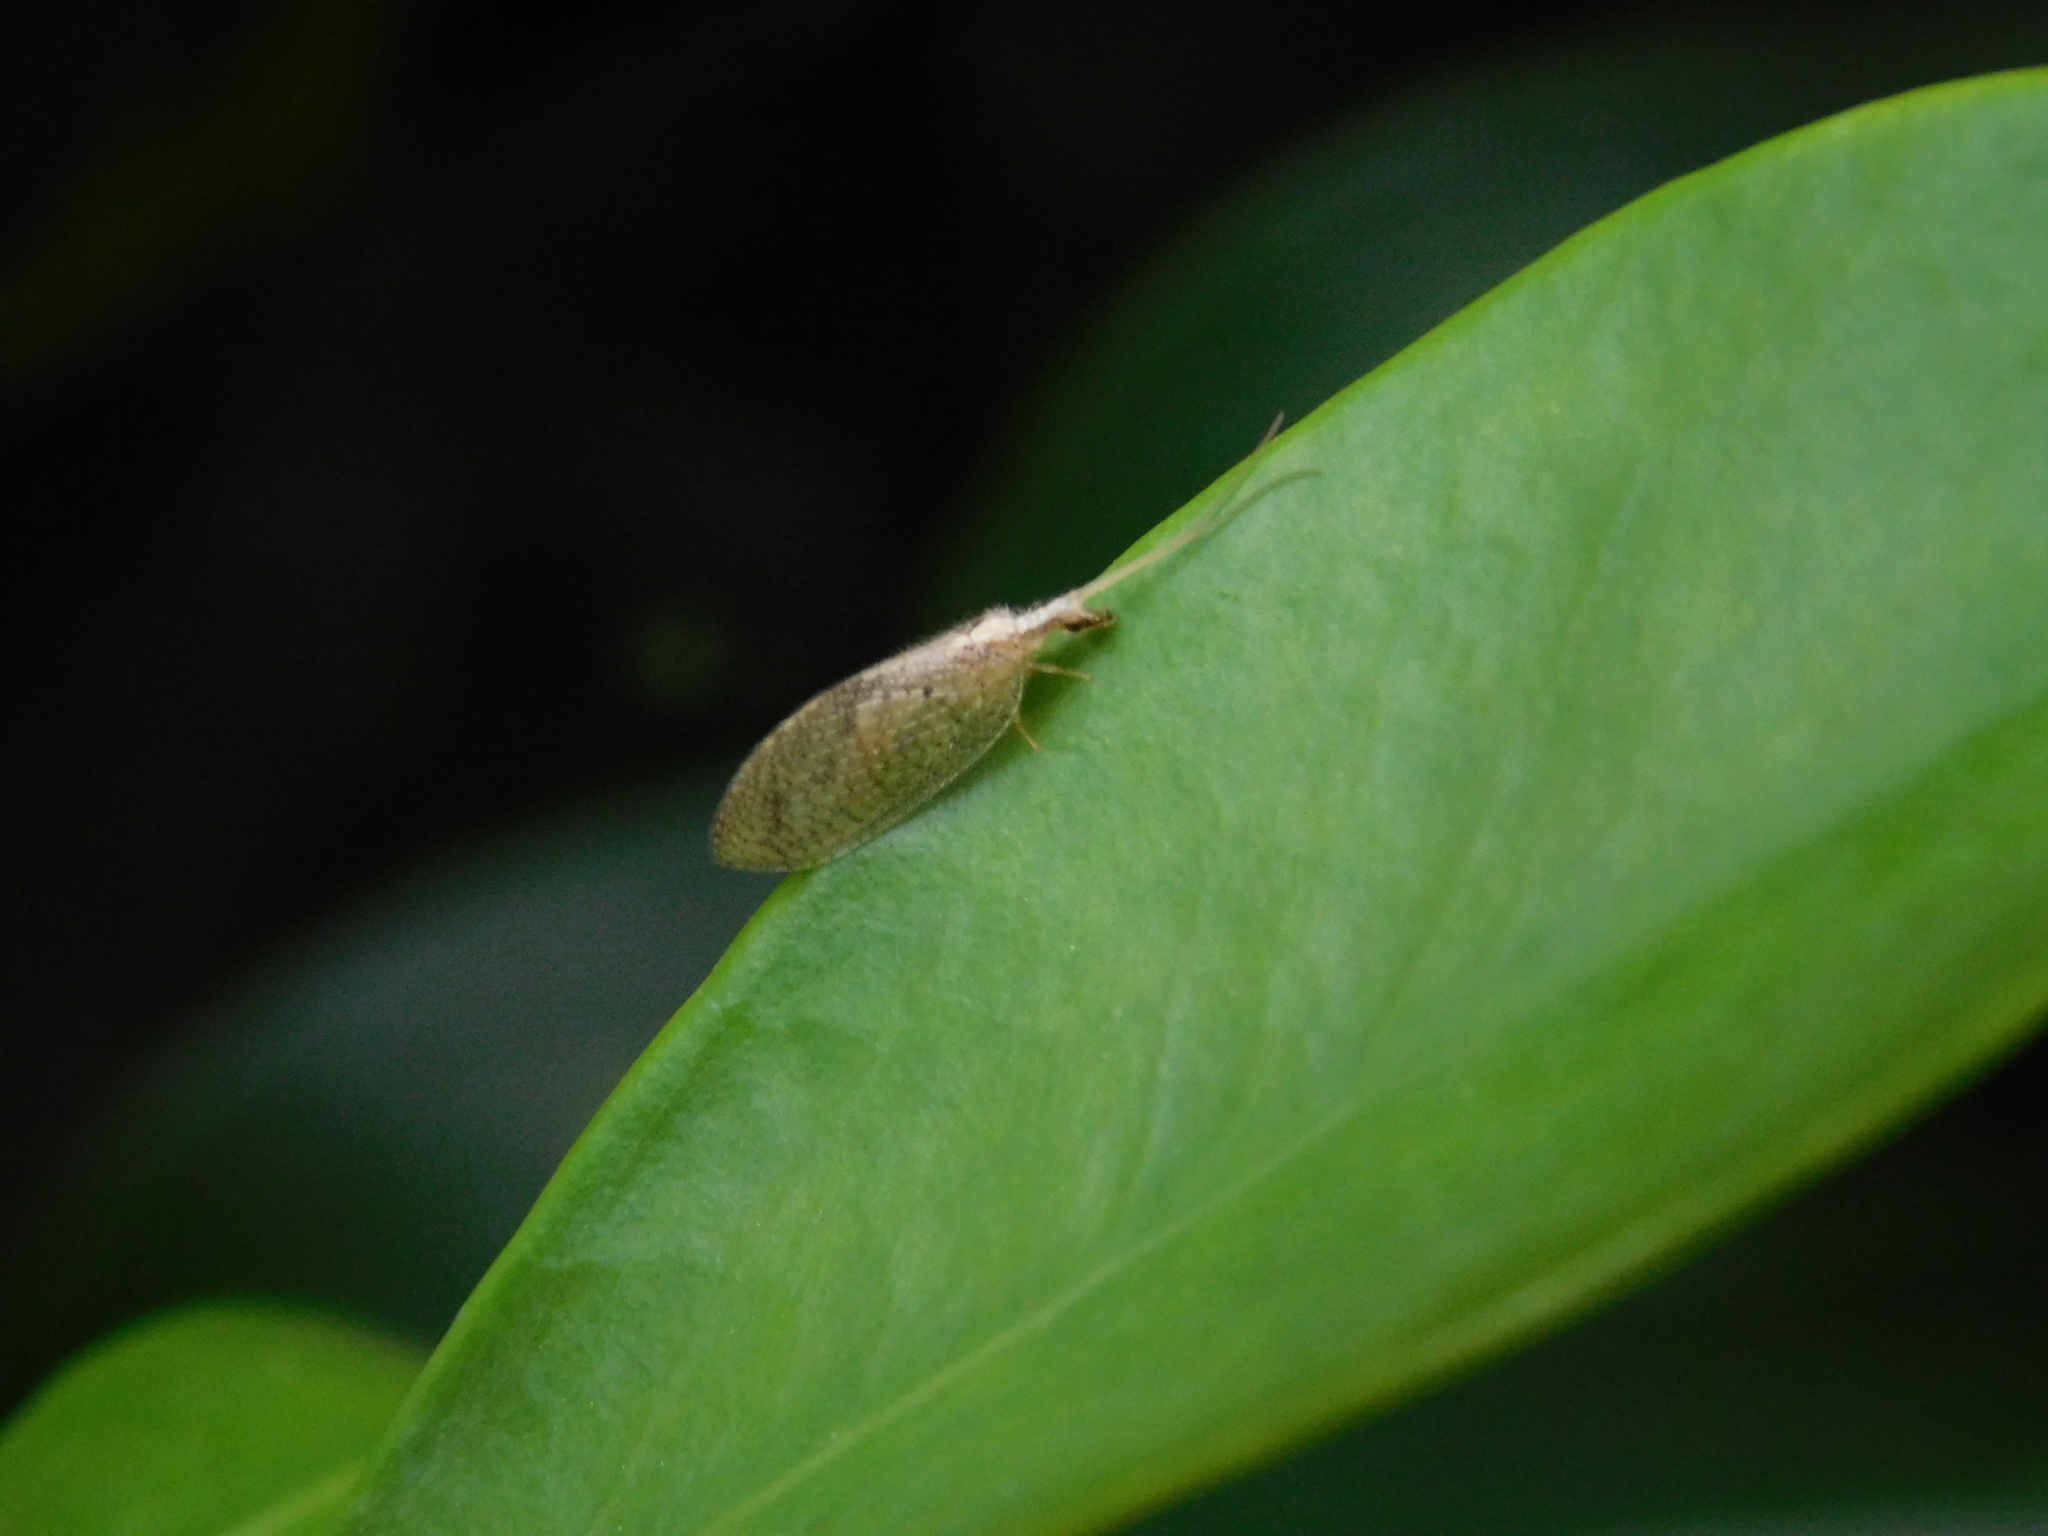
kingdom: Animalia
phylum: Arthropoda
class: Insecta
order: Neuroptera
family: Hemerobiidae
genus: Hemerobius
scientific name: Hemerobius bolivari
